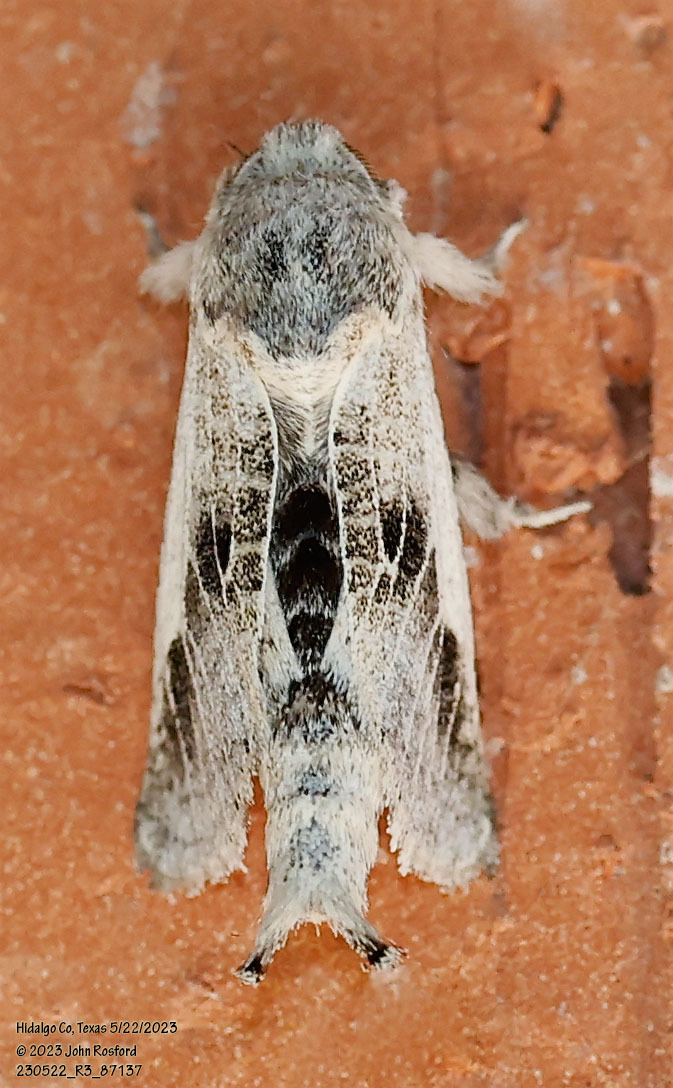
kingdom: Animalia
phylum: Arthropoda
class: Insecta
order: Lepidoptera
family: Cossidae
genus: Givira
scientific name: Givira
